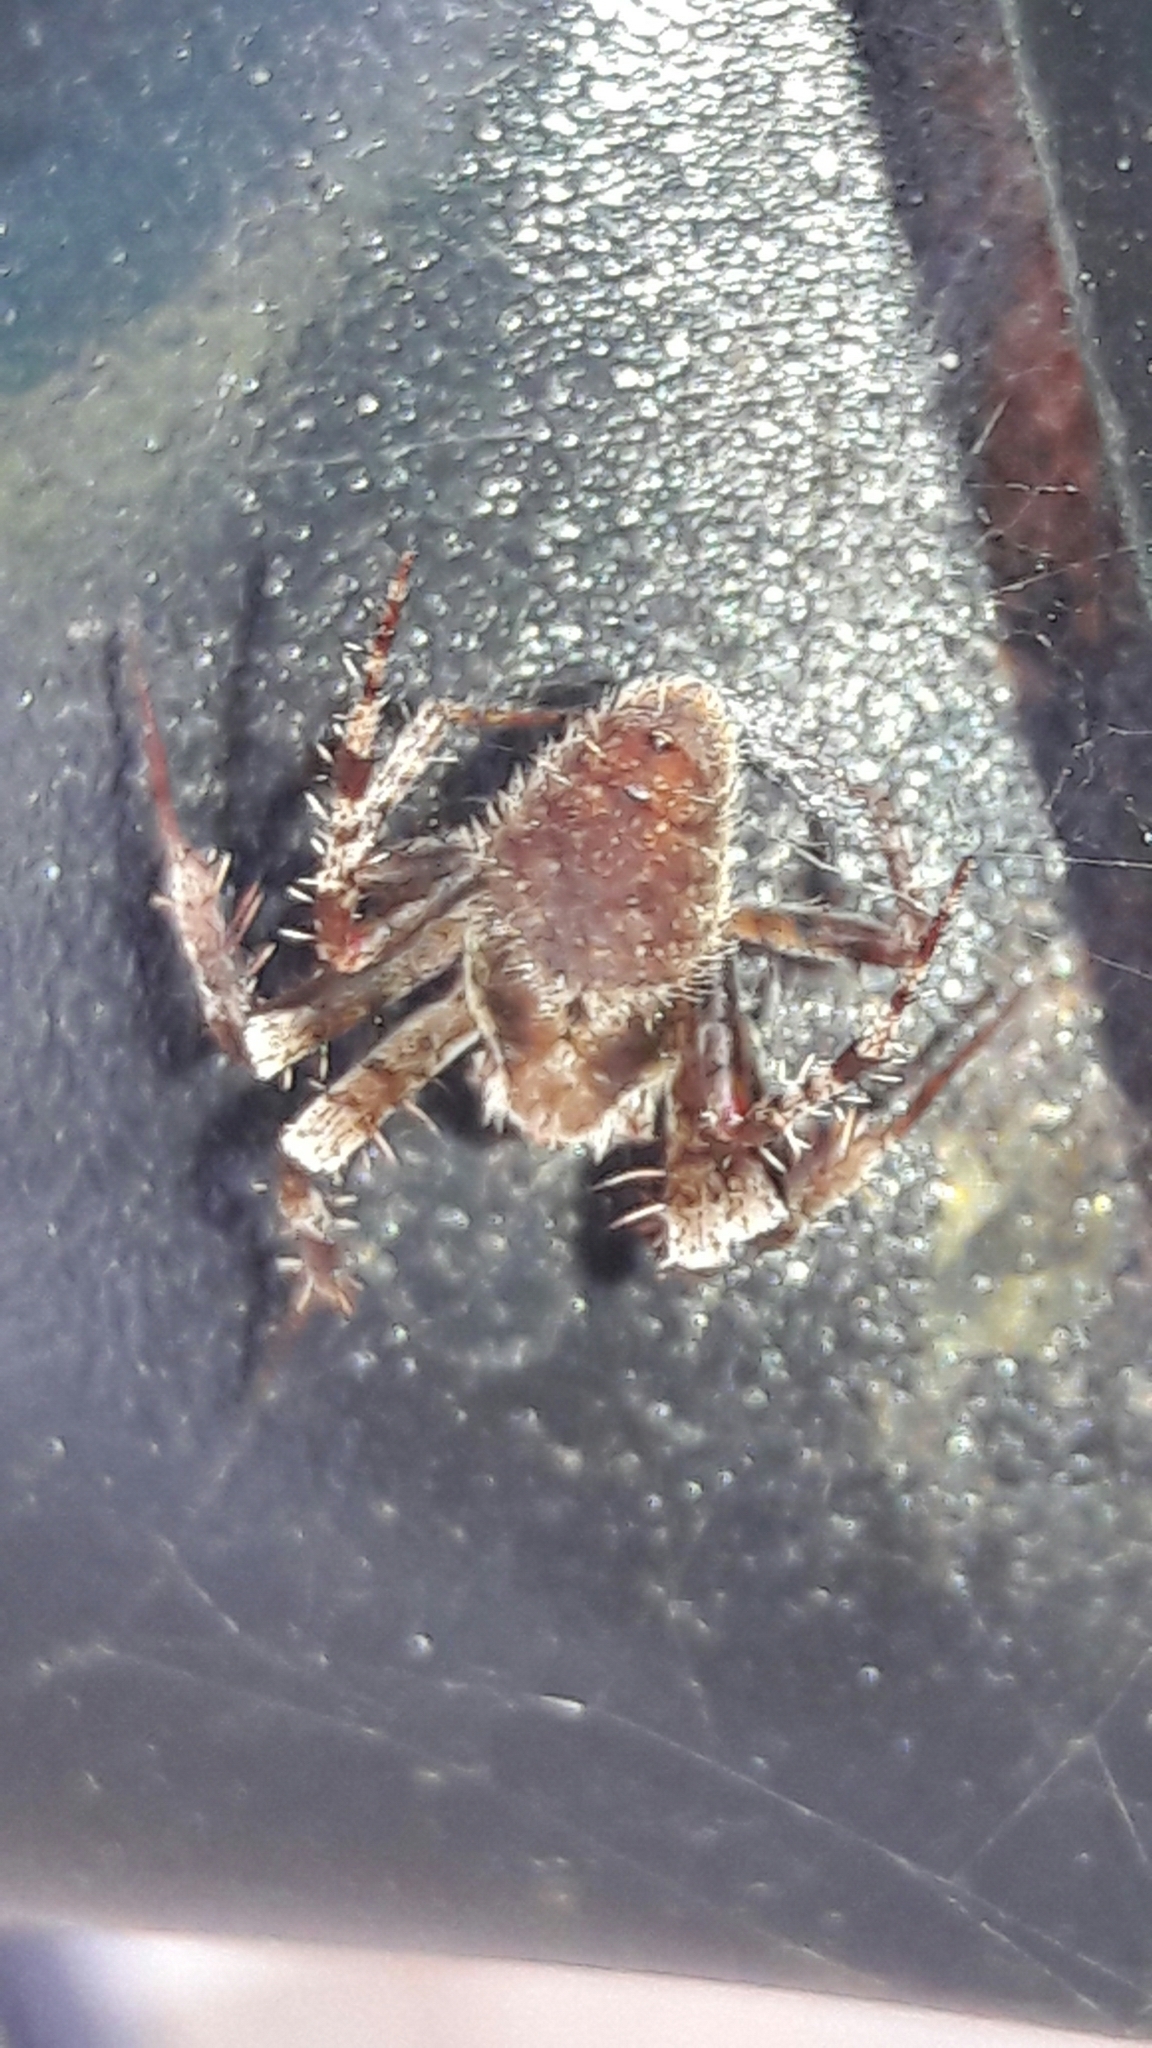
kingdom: Animalia
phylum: Arthropoda
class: Arachnida
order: Araneae
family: Araneidae
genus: Eriophora
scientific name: Eriophora edax
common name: Orb weavers
